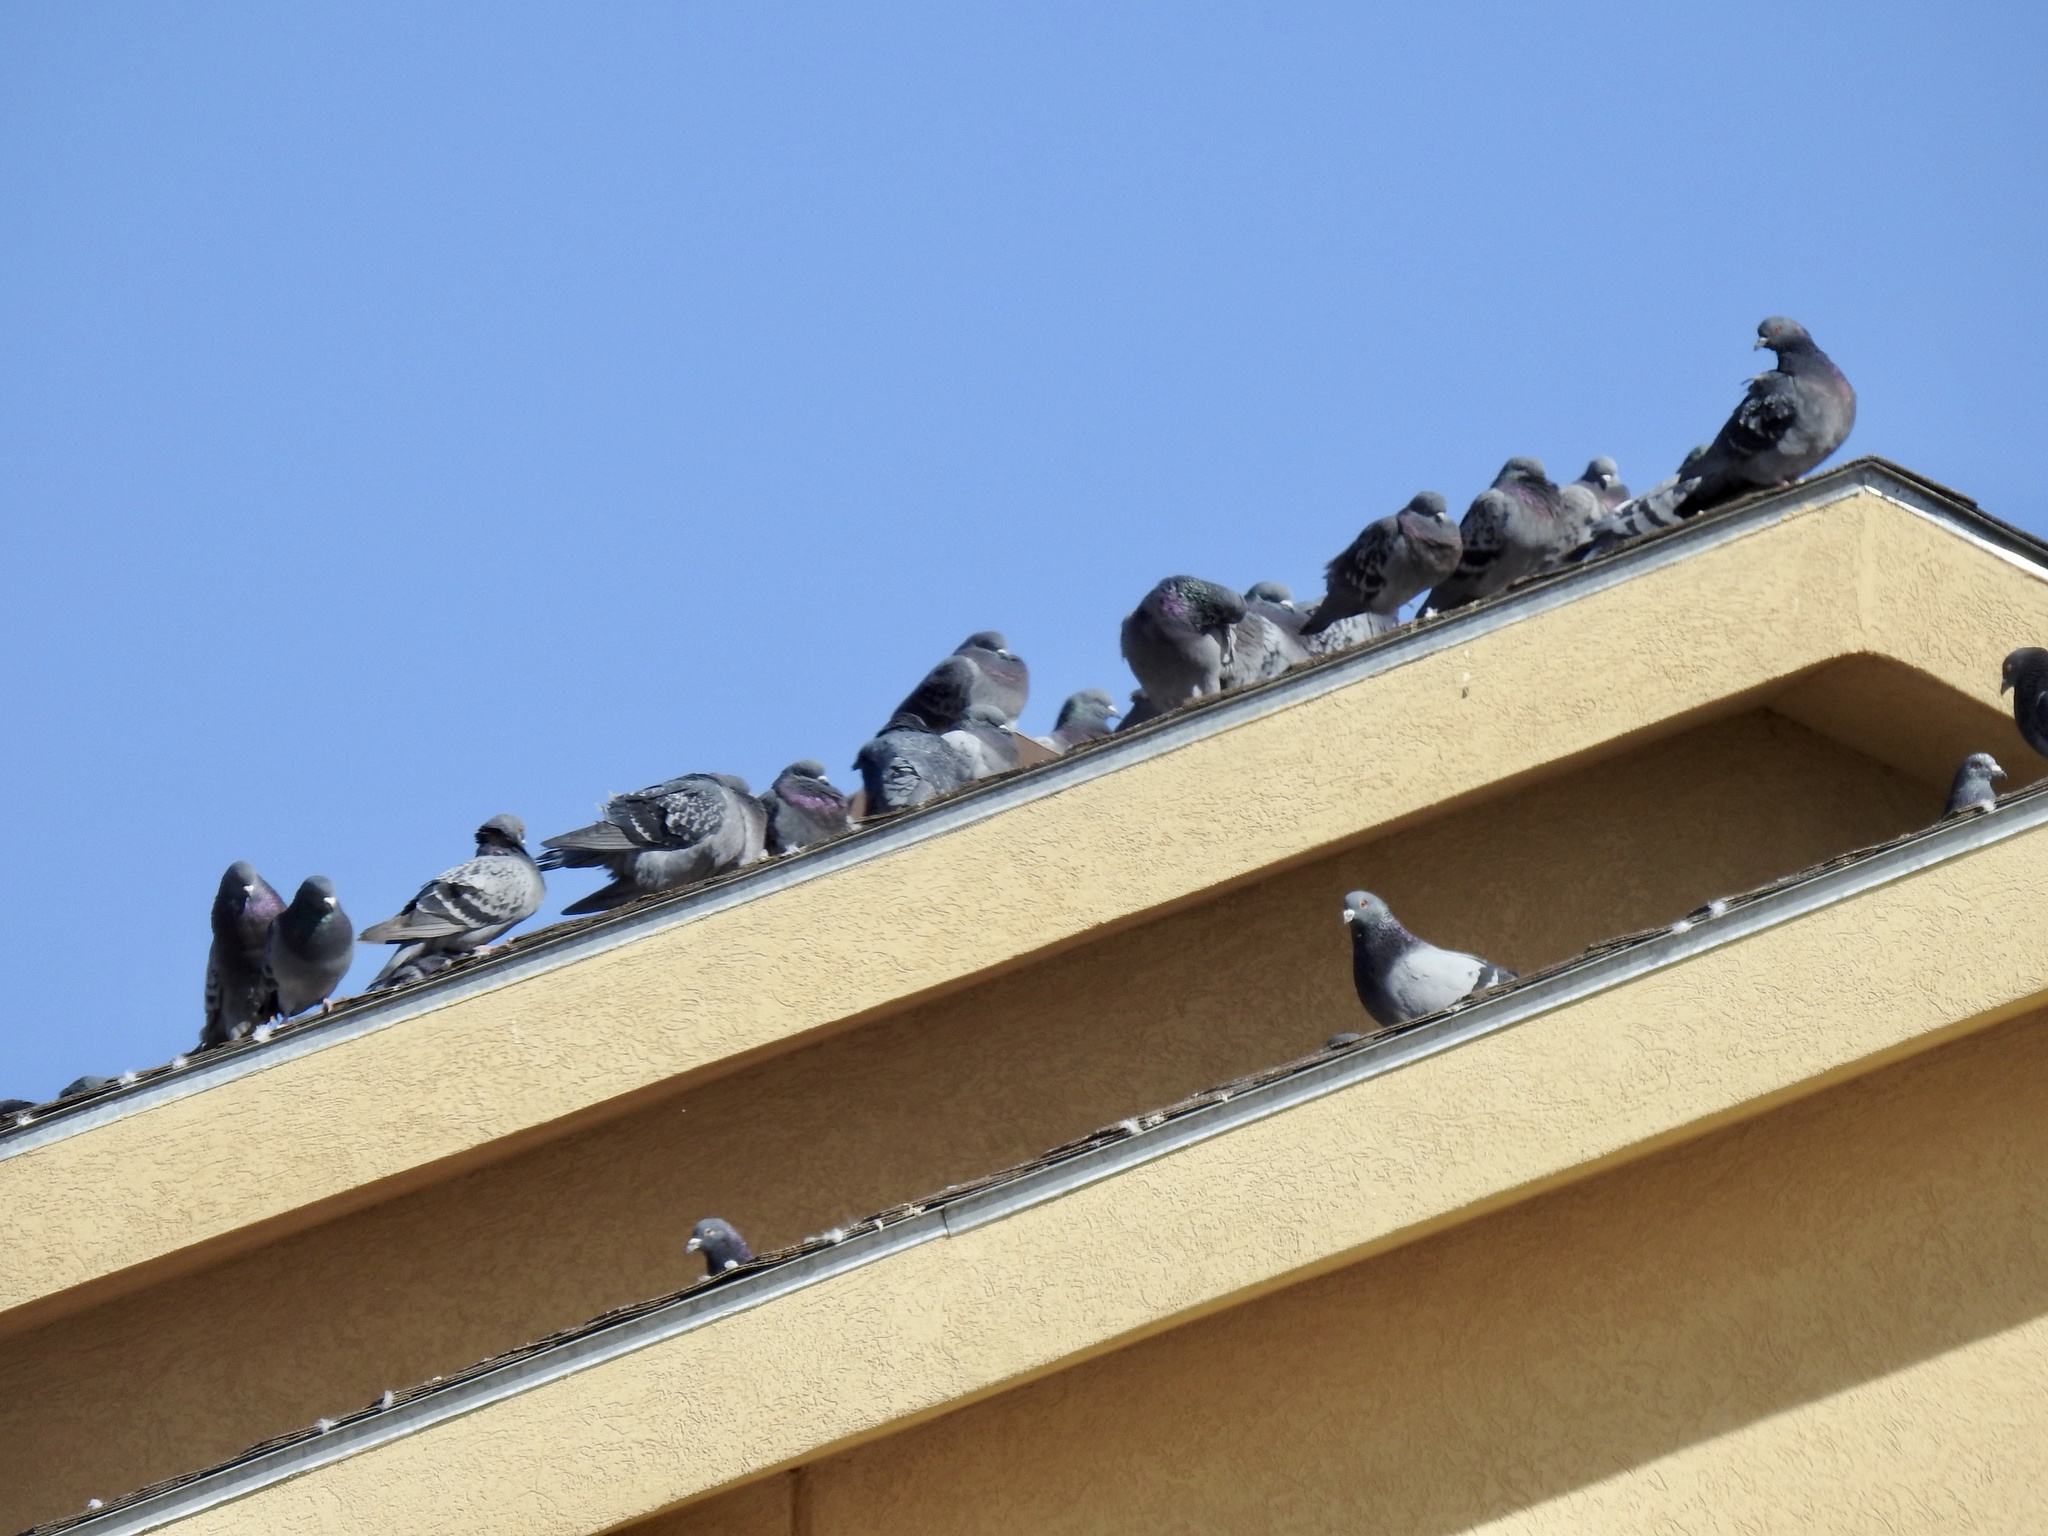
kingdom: Animalia
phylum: Chordata
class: Aves
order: Columbiformes
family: Columbidae
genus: Columba
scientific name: Columba livia
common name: Rock pigeon
